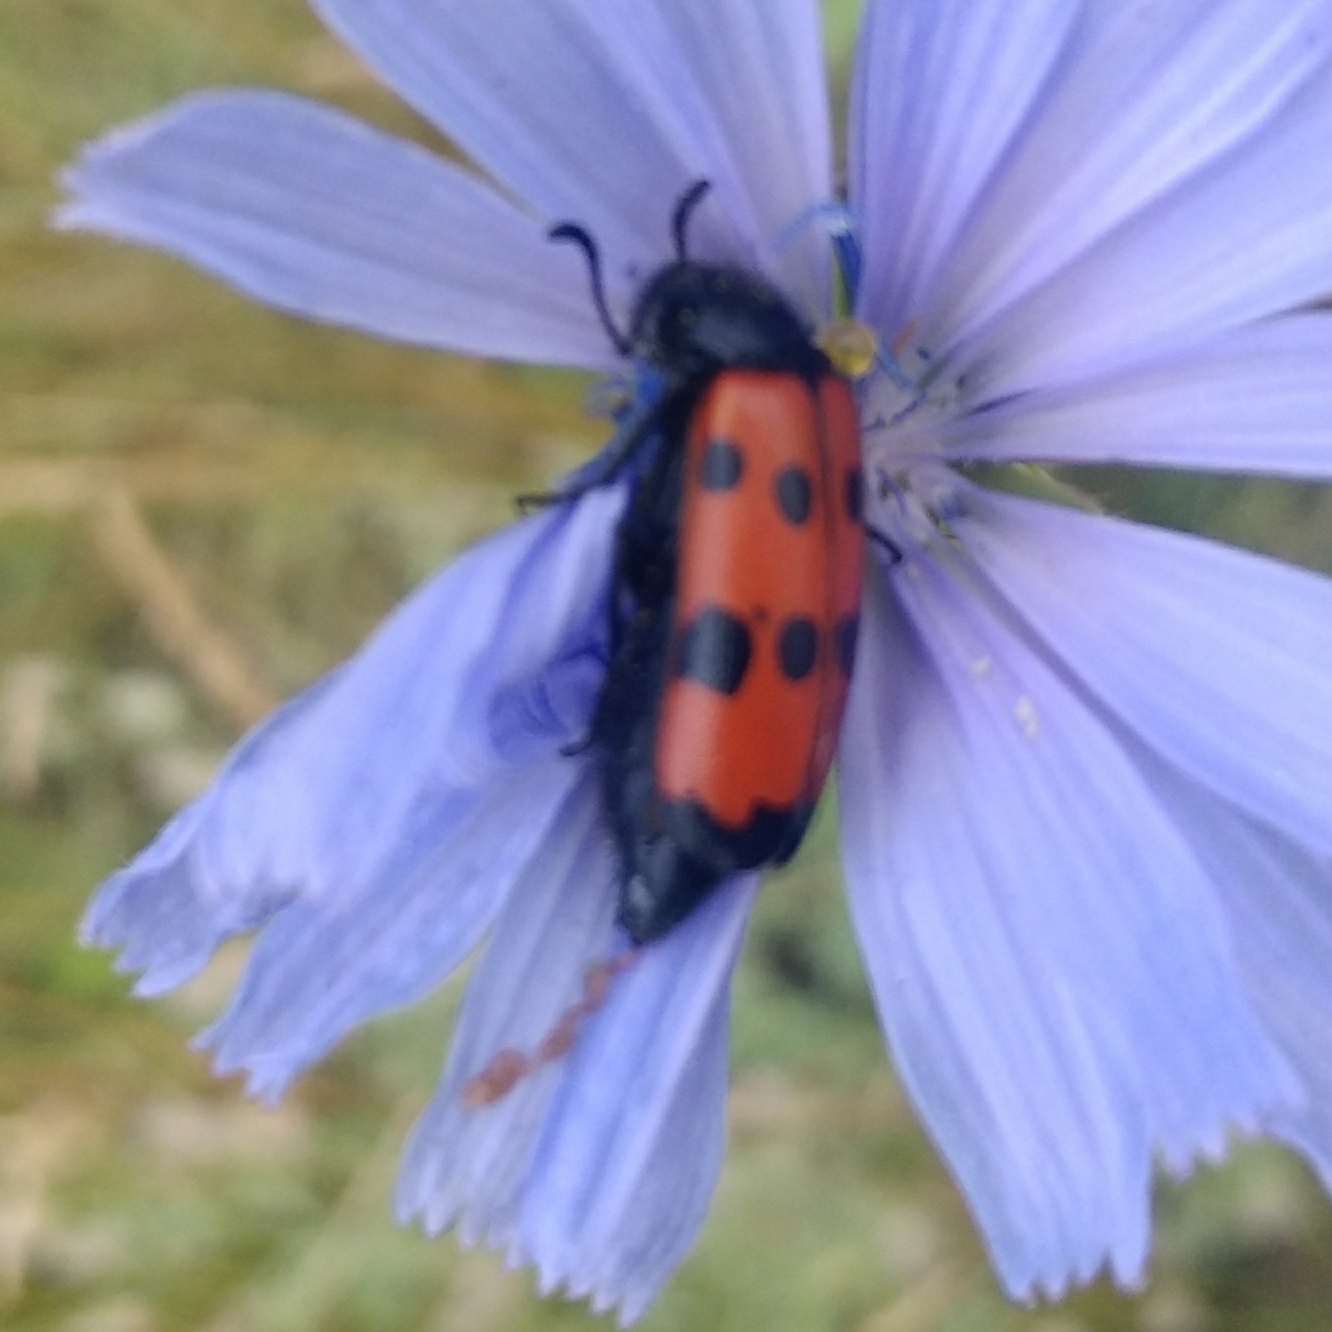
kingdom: Animalia
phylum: Arthropoda
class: Insecta
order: Coleoptera
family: Meloidae
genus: Mylabris
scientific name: Mylabris quadripunctata
